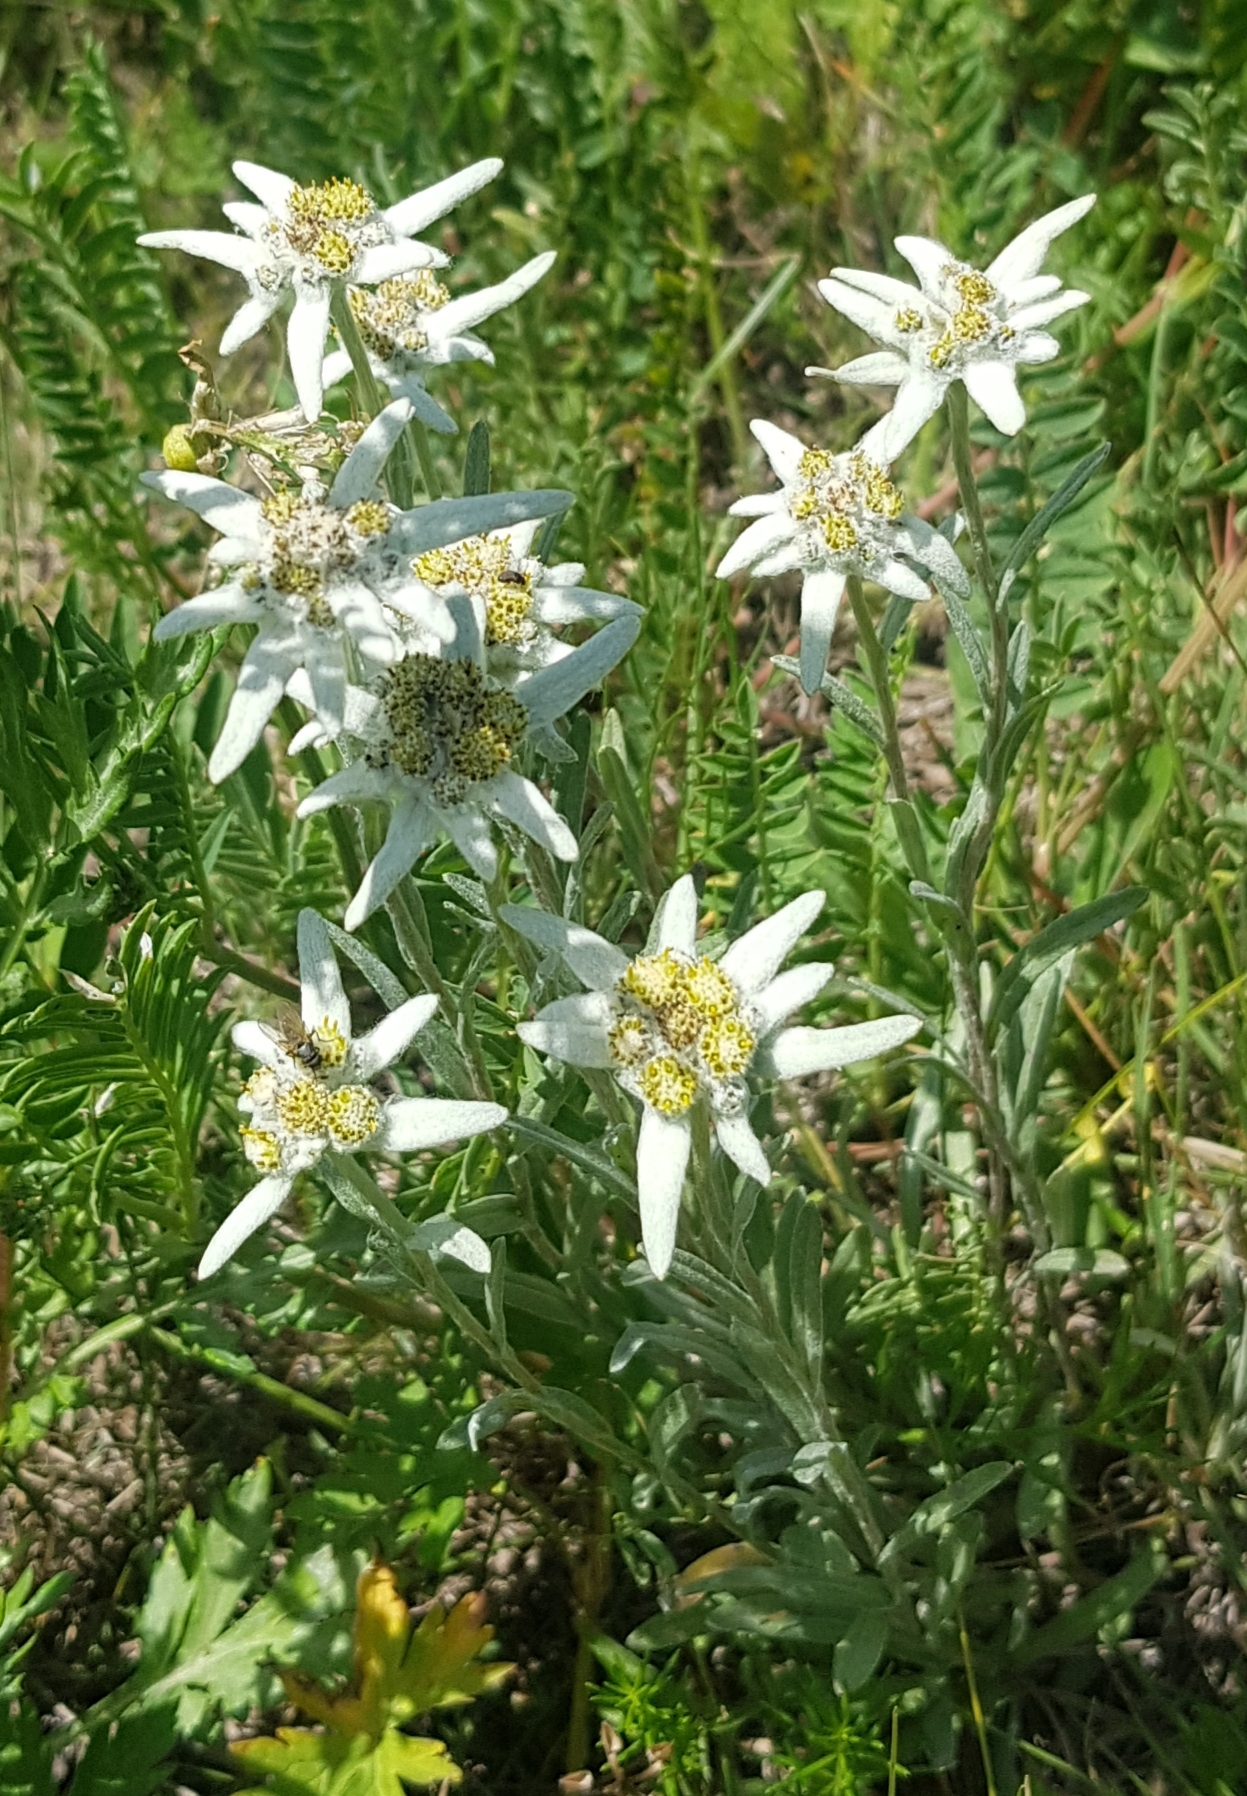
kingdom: Plantae
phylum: Tracheophyta
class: Magnoliopsida
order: Asterales
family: Asteraceae
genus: Leontopodium
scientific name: Leontopodium leontopodioides
